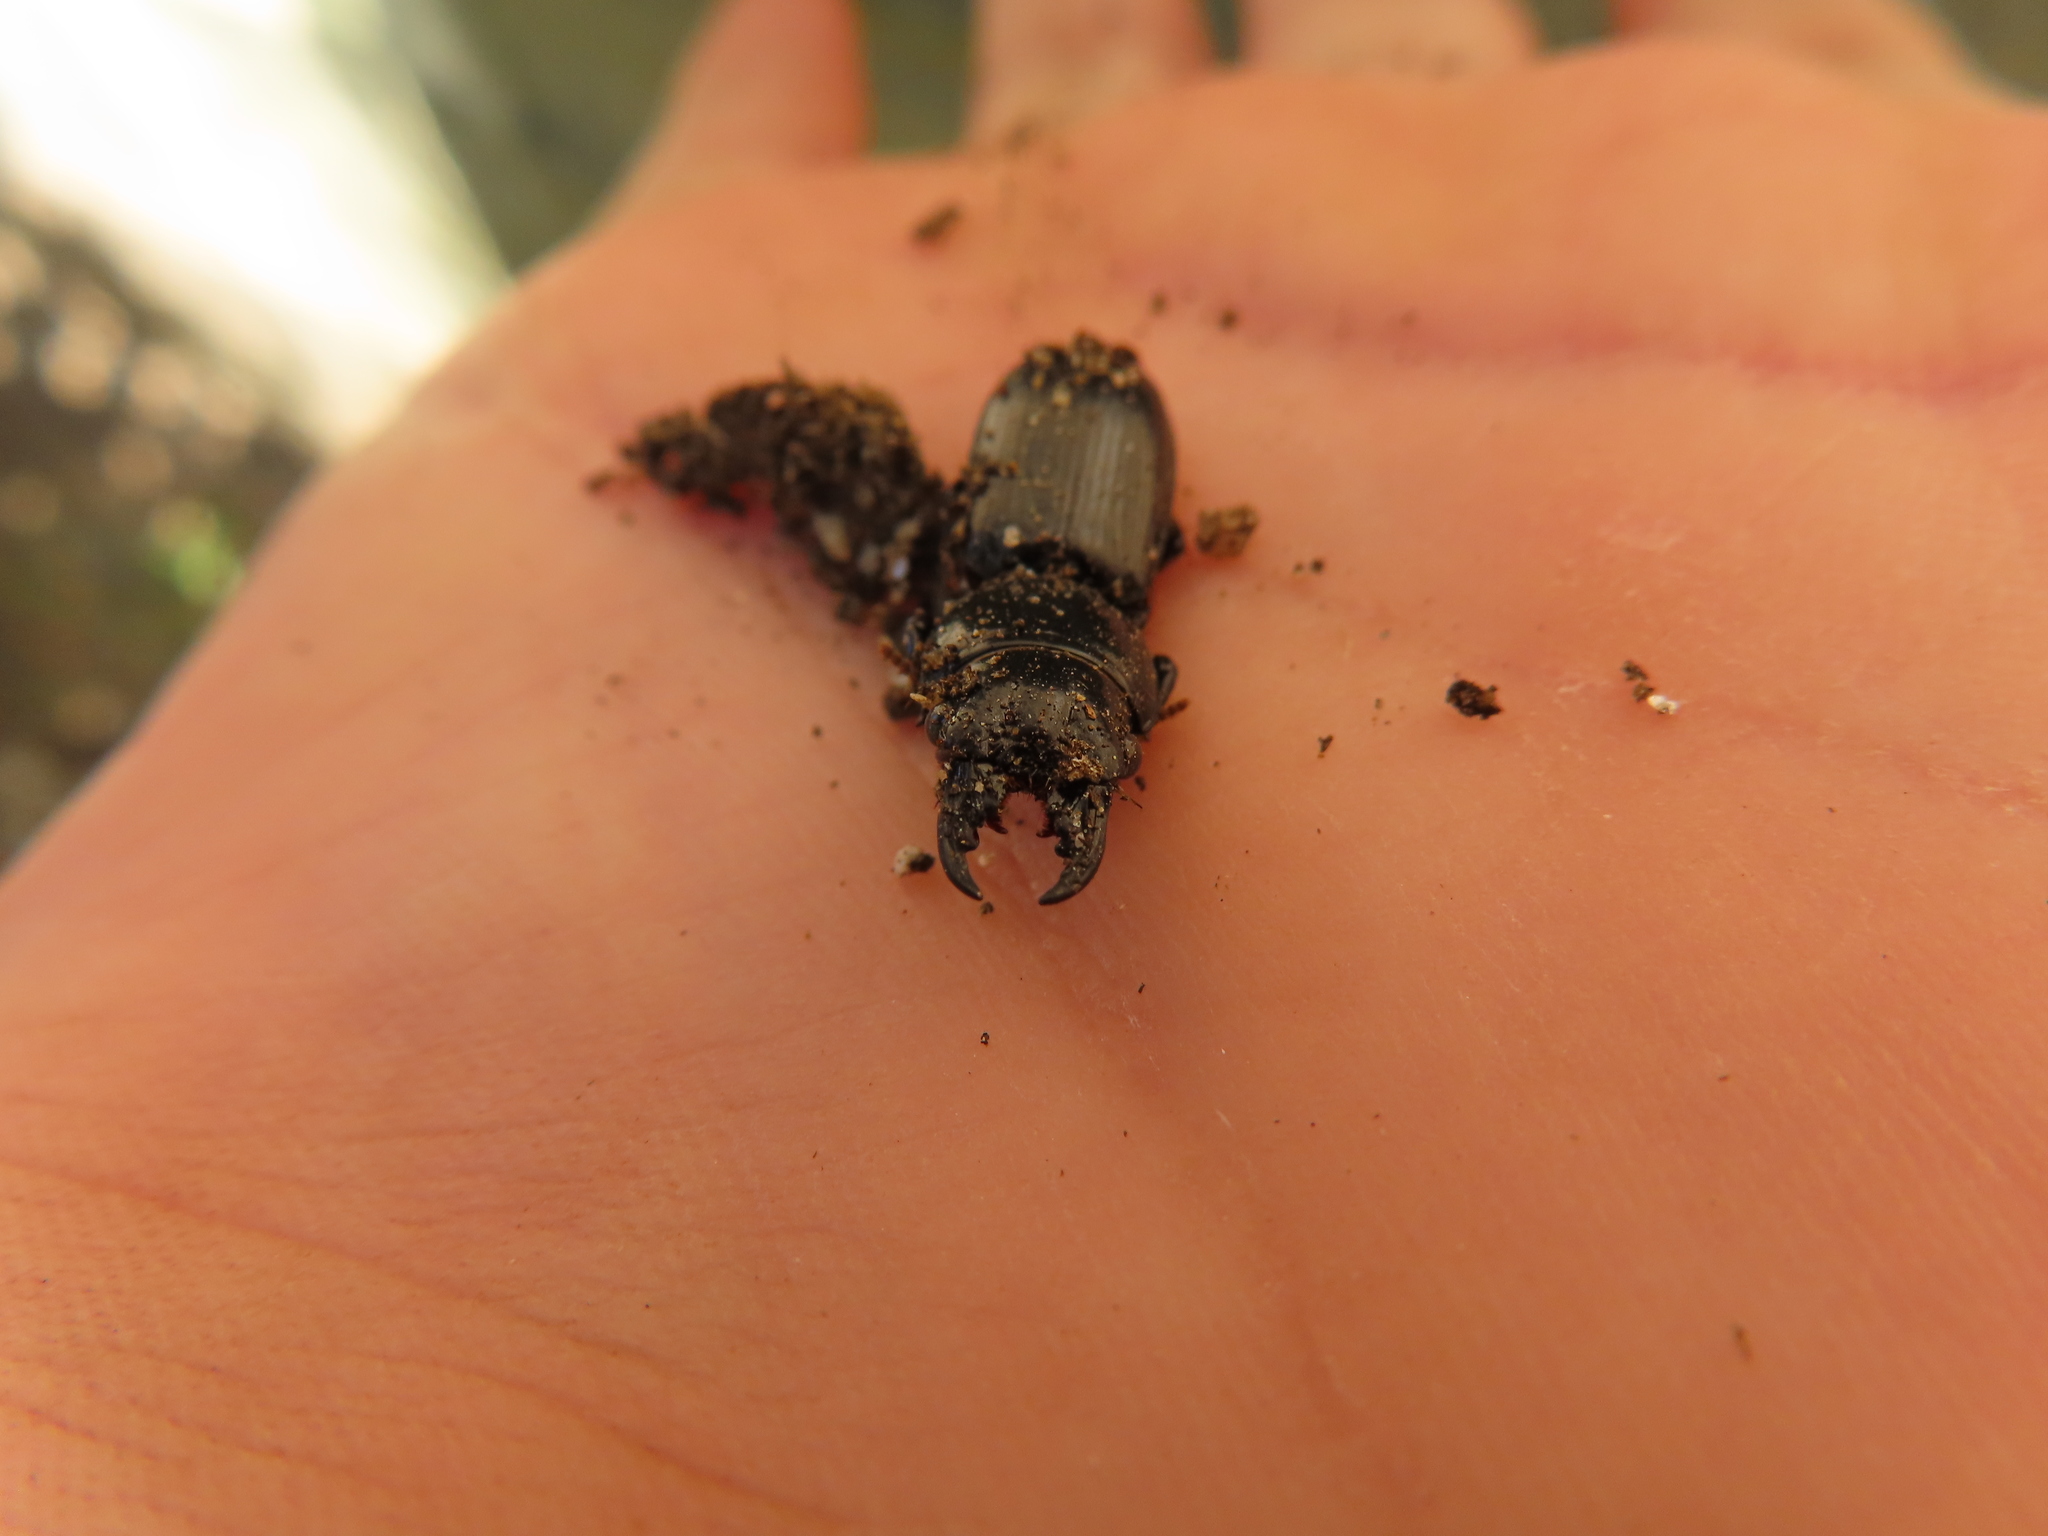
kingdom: Animalia
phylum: Arthropoda
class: Insecta
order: Coleoptera
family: Carabidae
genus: Scarites
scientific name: Scarites subterraneus
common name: Big-headed ground beetle
